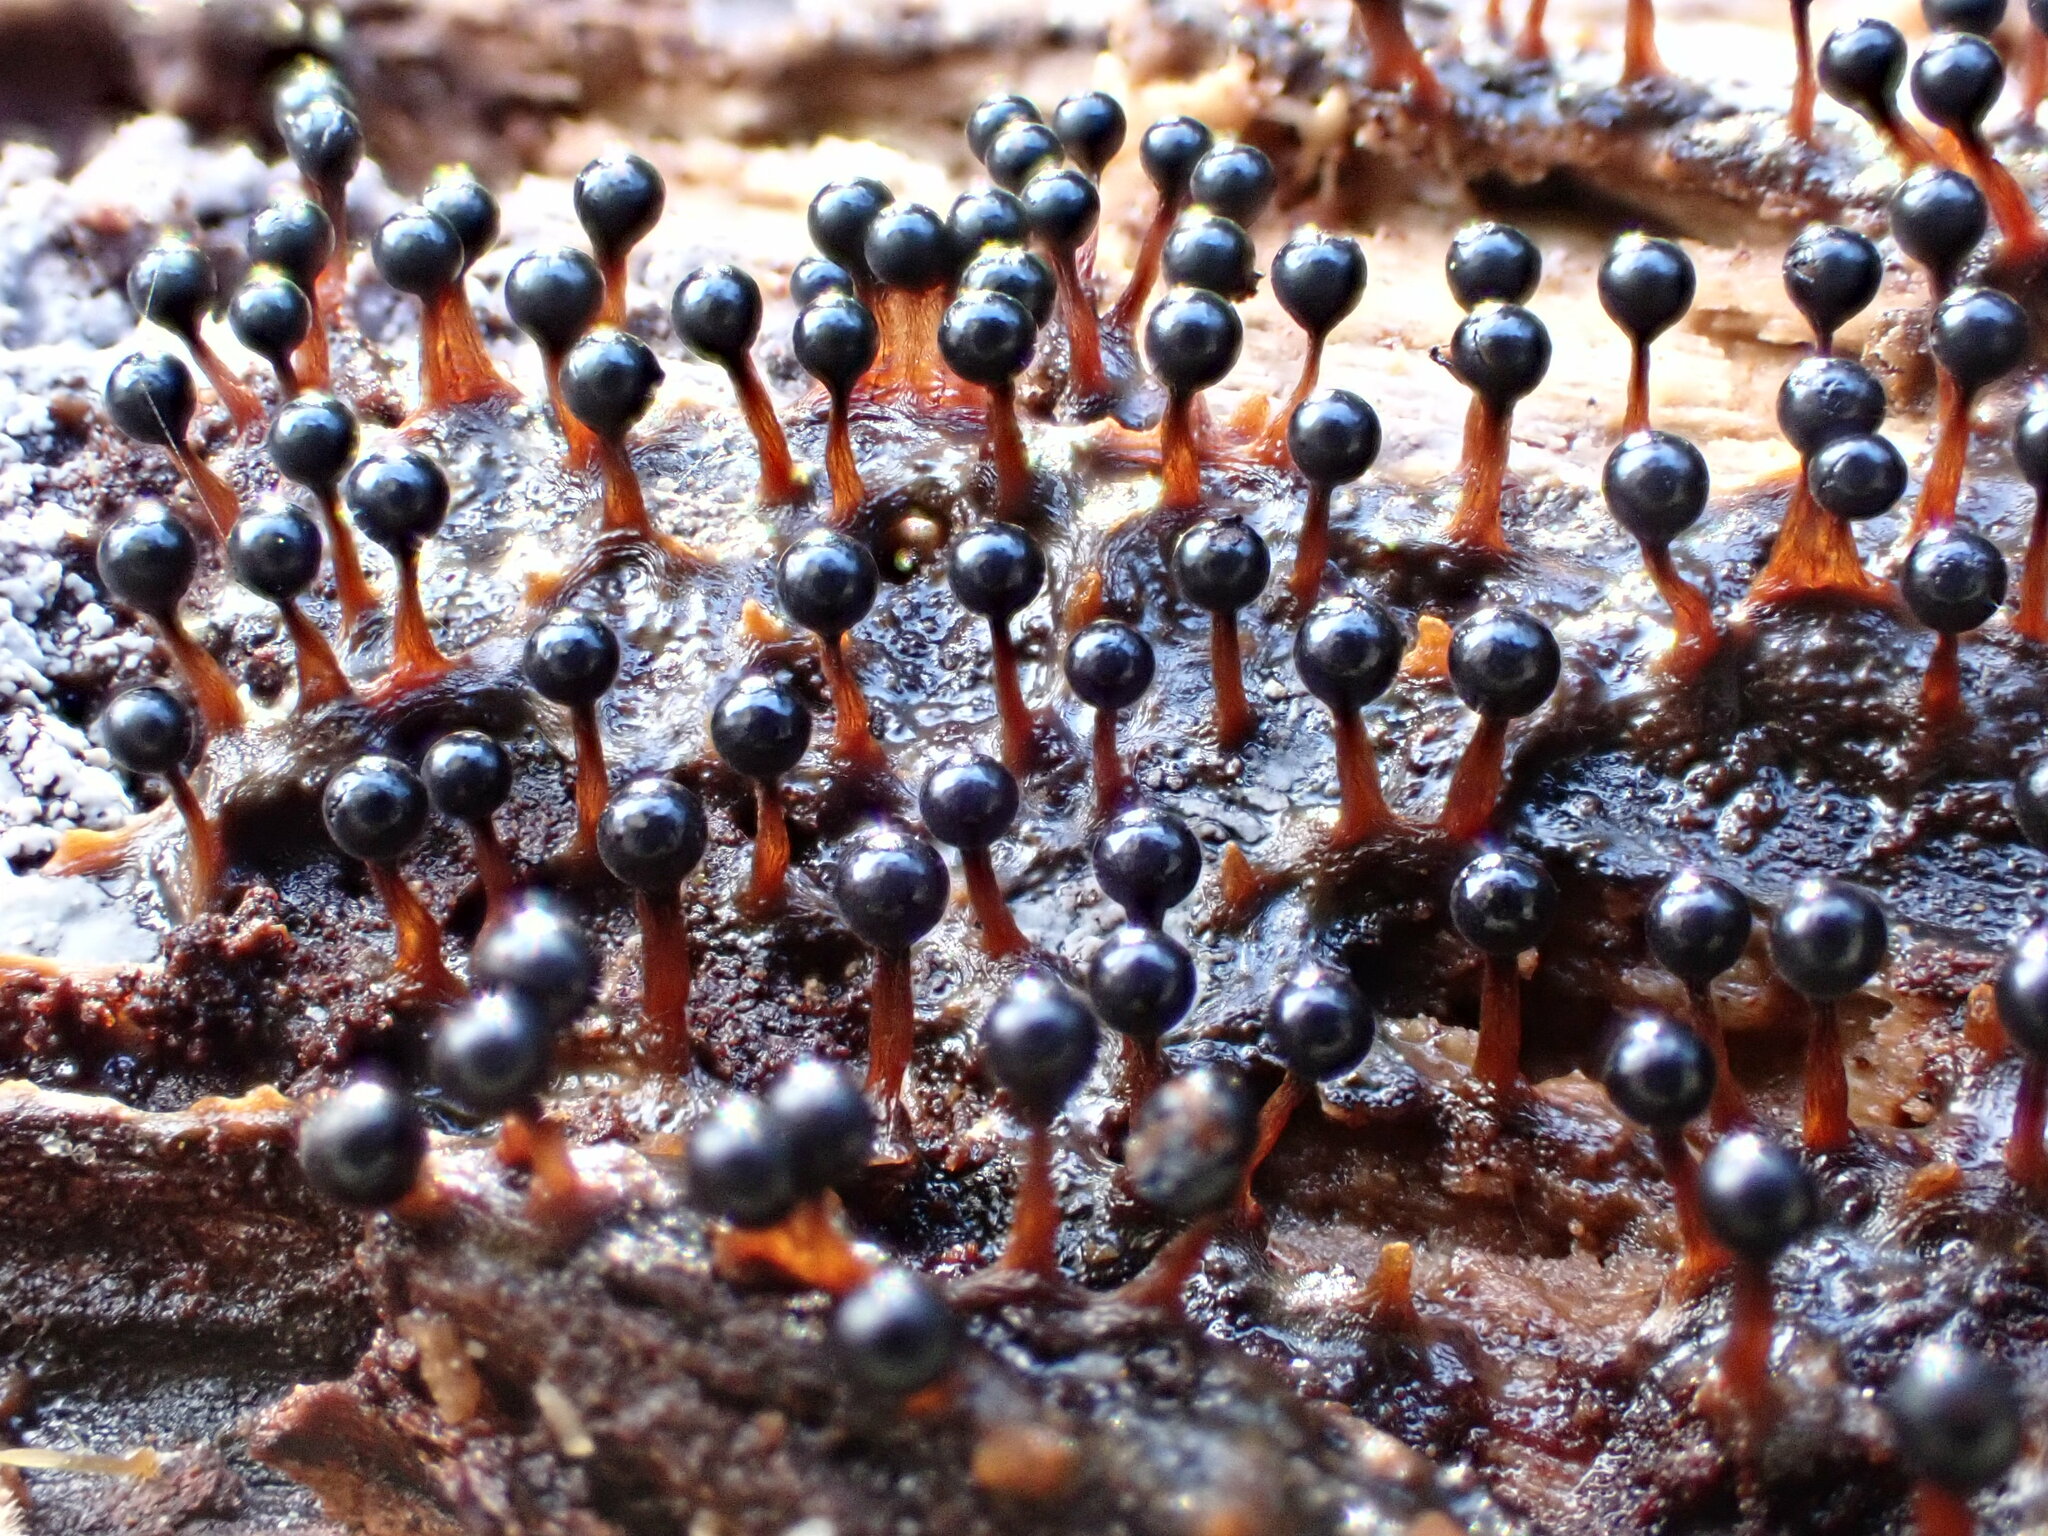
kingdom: Protozoa
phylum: Mycetozoa
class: Myxomycetes
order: Trichiales
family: Trichiaceae
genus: Metatrichia
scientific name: Metatrichia floriformis
